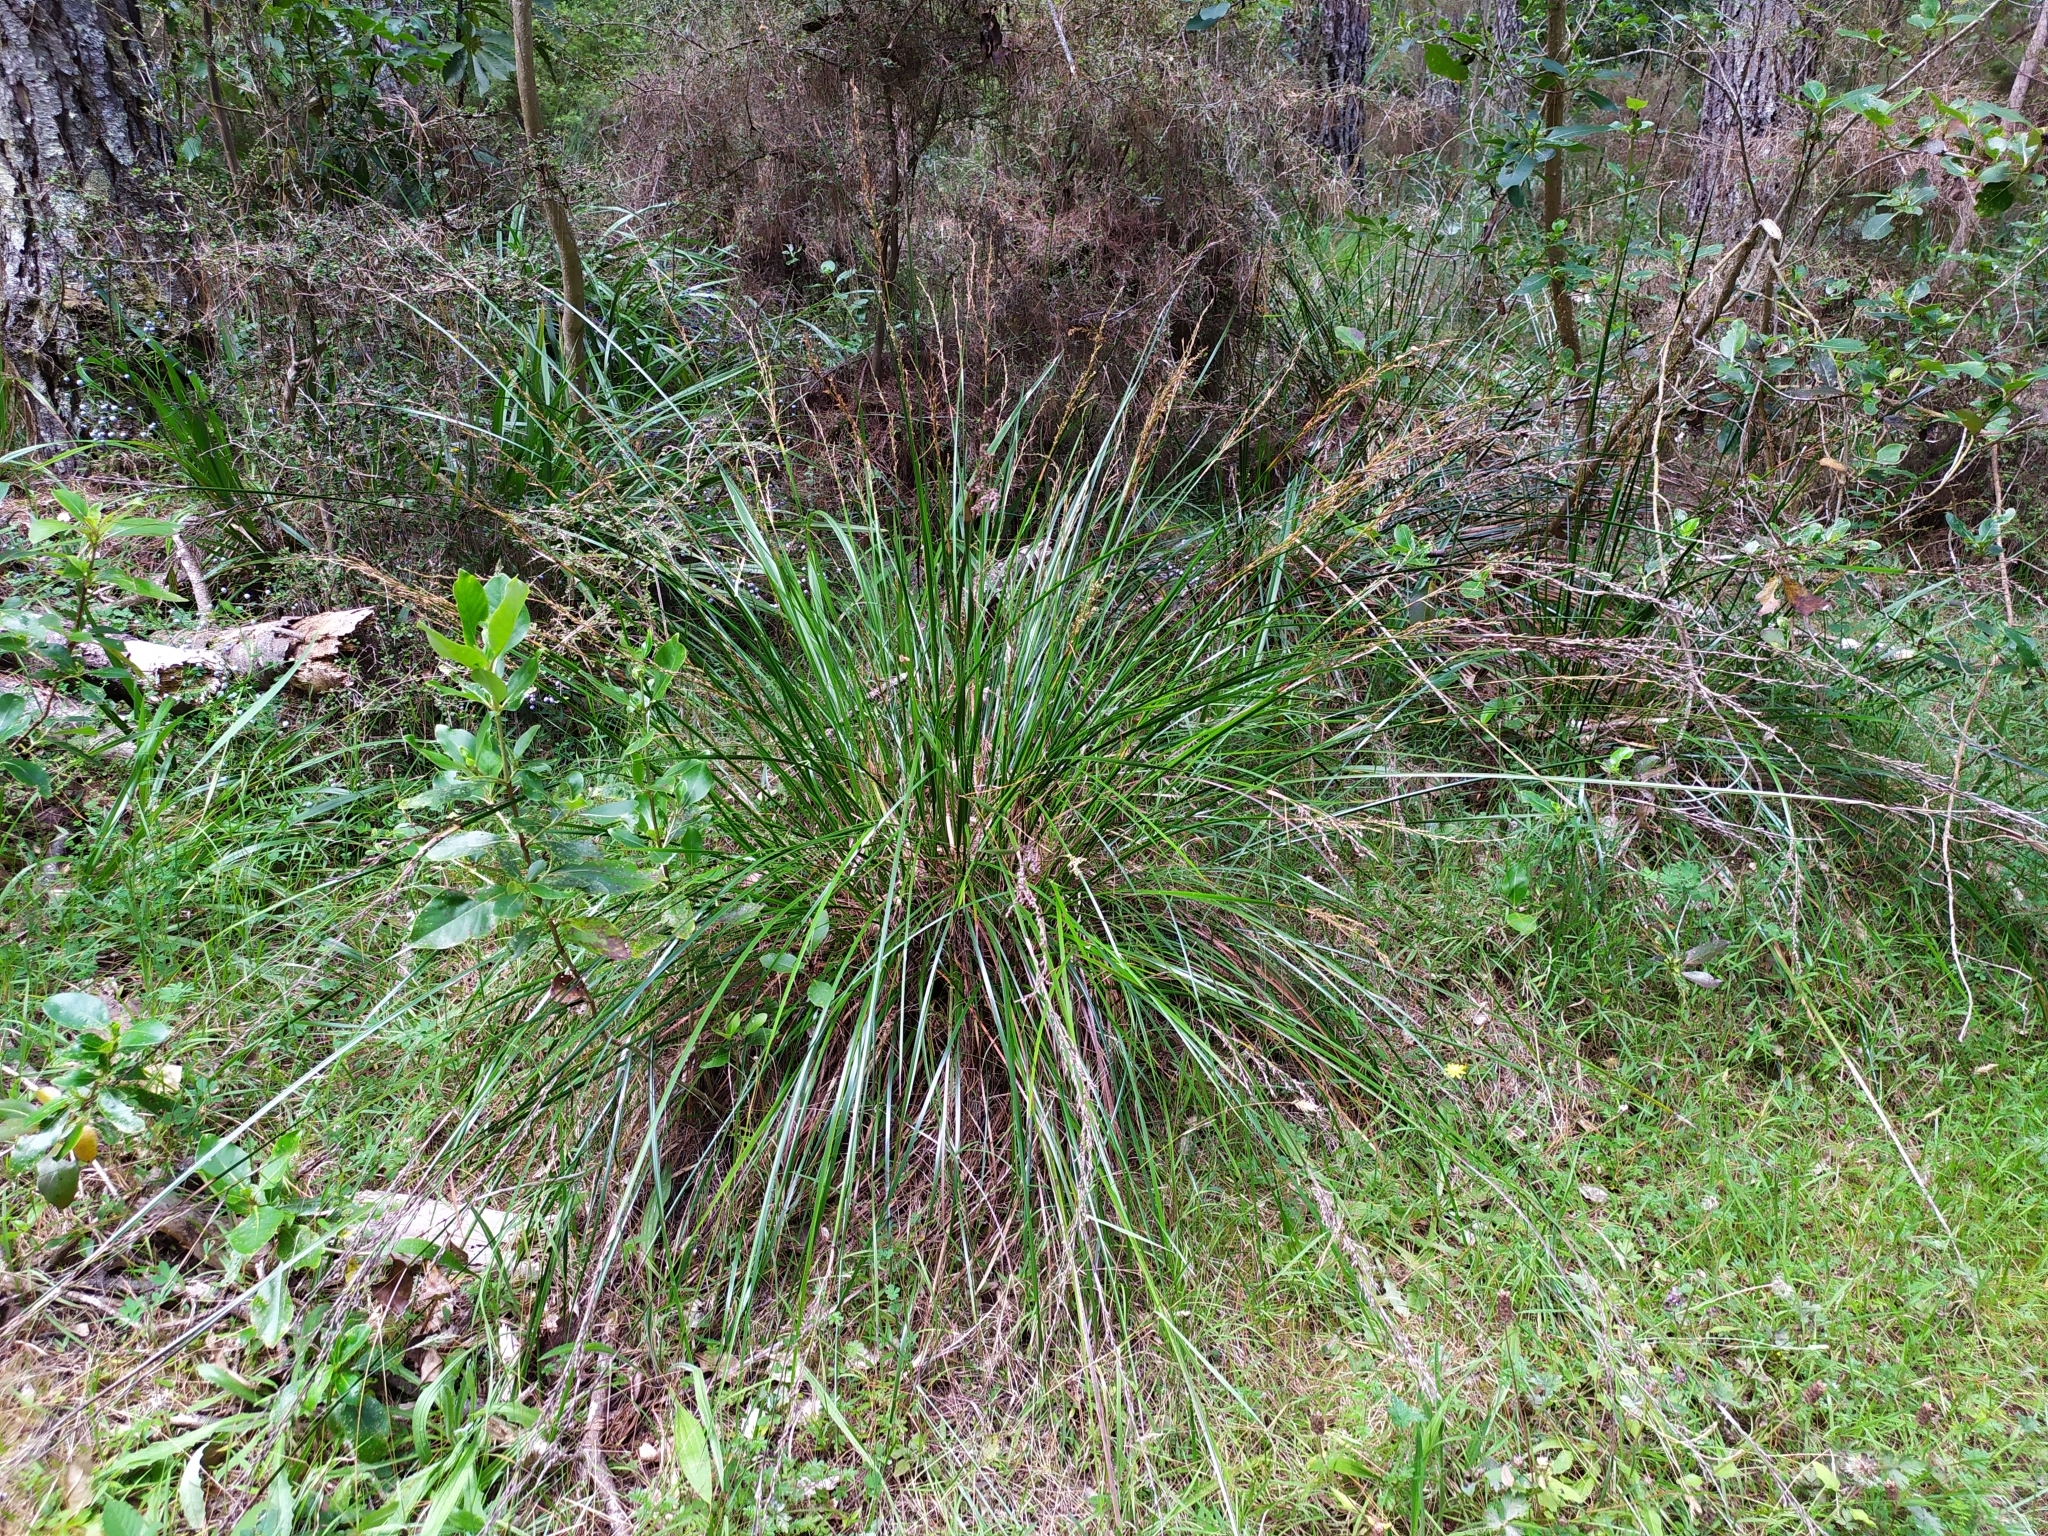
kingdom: Plantae
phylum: Tracheophyta
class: Liliopsida
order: Poales
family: Cyperaceae
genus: Lepidosperma
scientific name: Lepidosperma laterale
